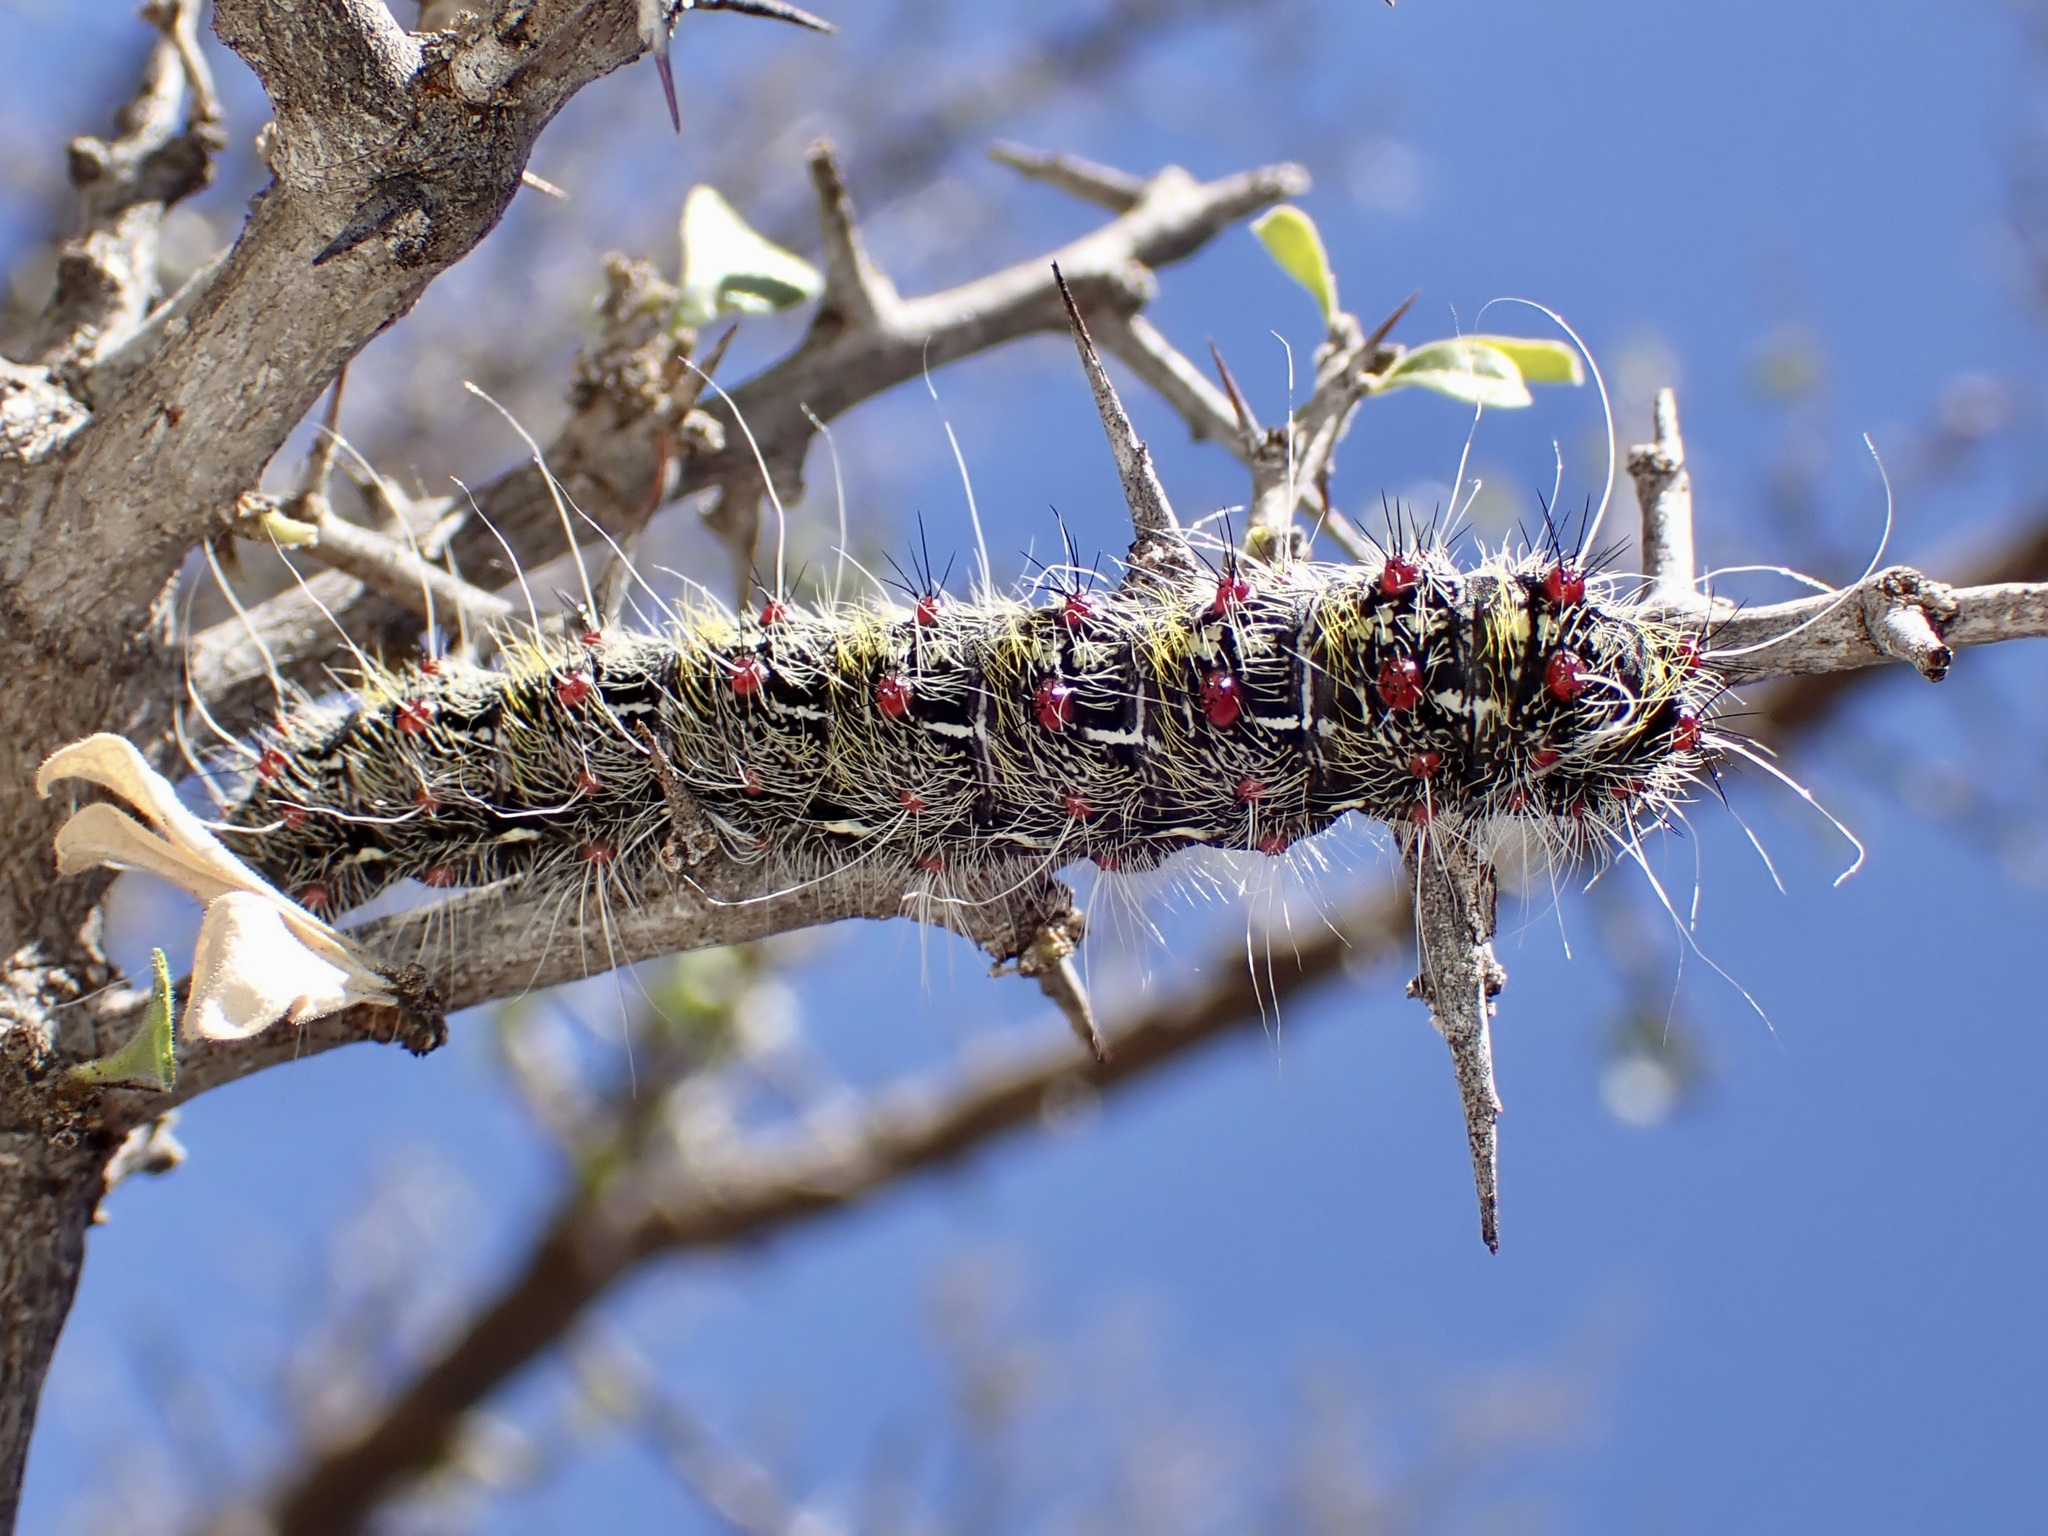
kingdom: Animalia
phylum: Arthropoda
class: Insecta
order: Lepidoptera
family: Saturniidae
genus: Saturnia
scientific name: Saturnia anona
